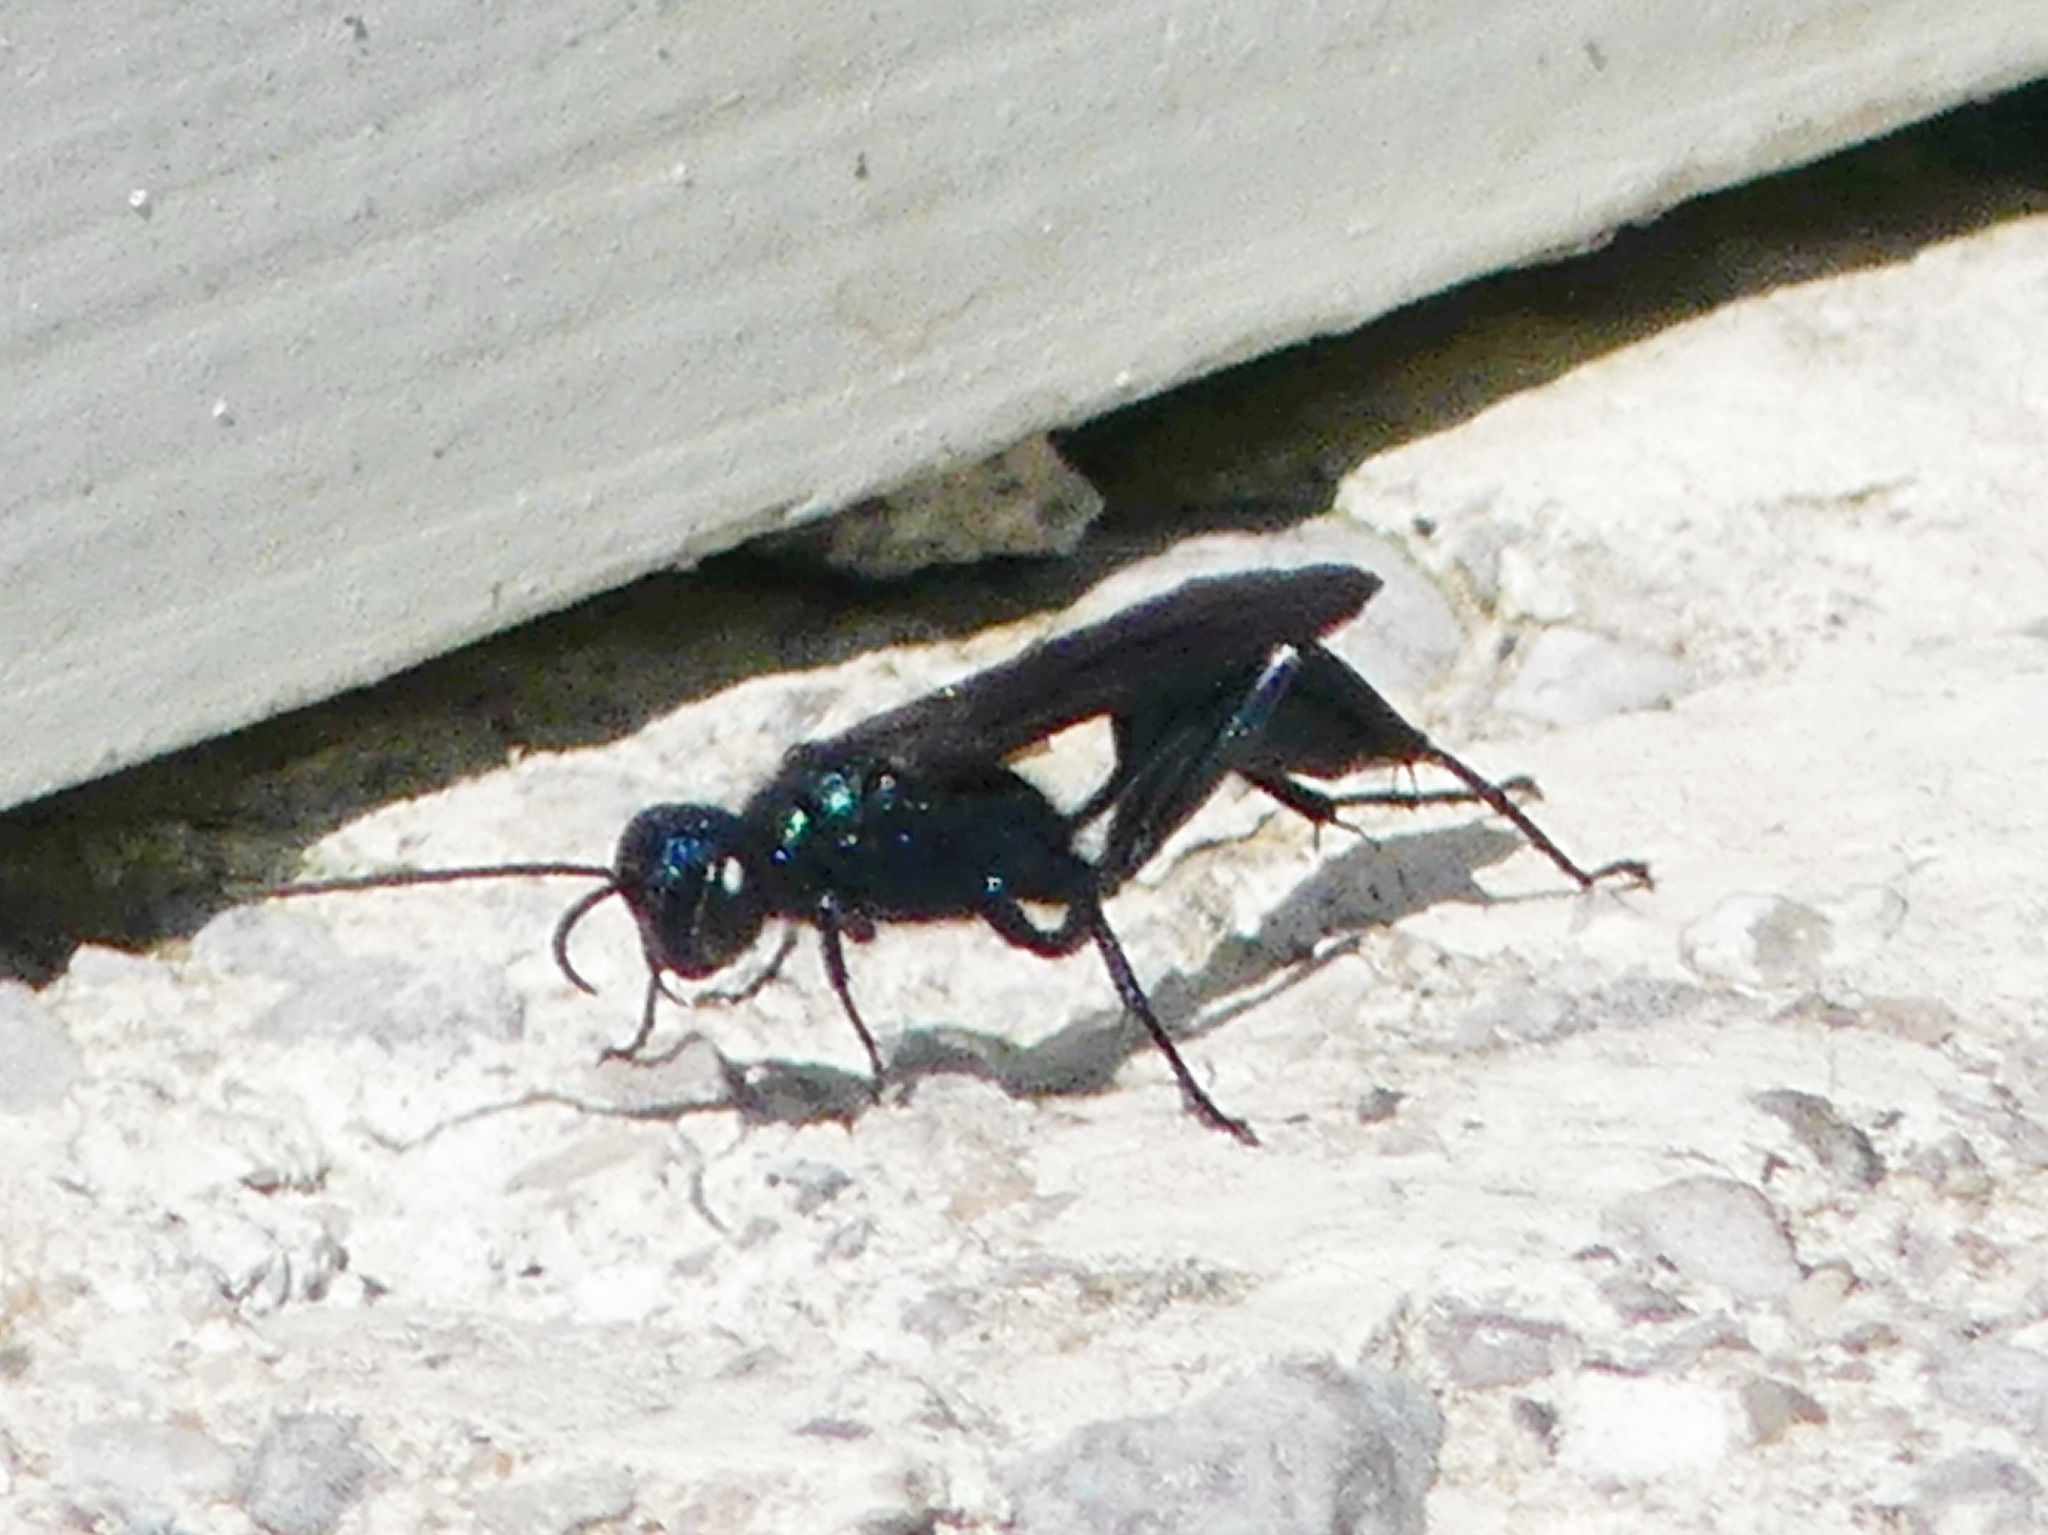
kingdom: Animalia
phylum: Arthropoda
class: Insecta
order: Hymenoptera
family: Sphecidae
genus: Chalybion
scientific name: Chalybion californicum
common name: Mud dauber
